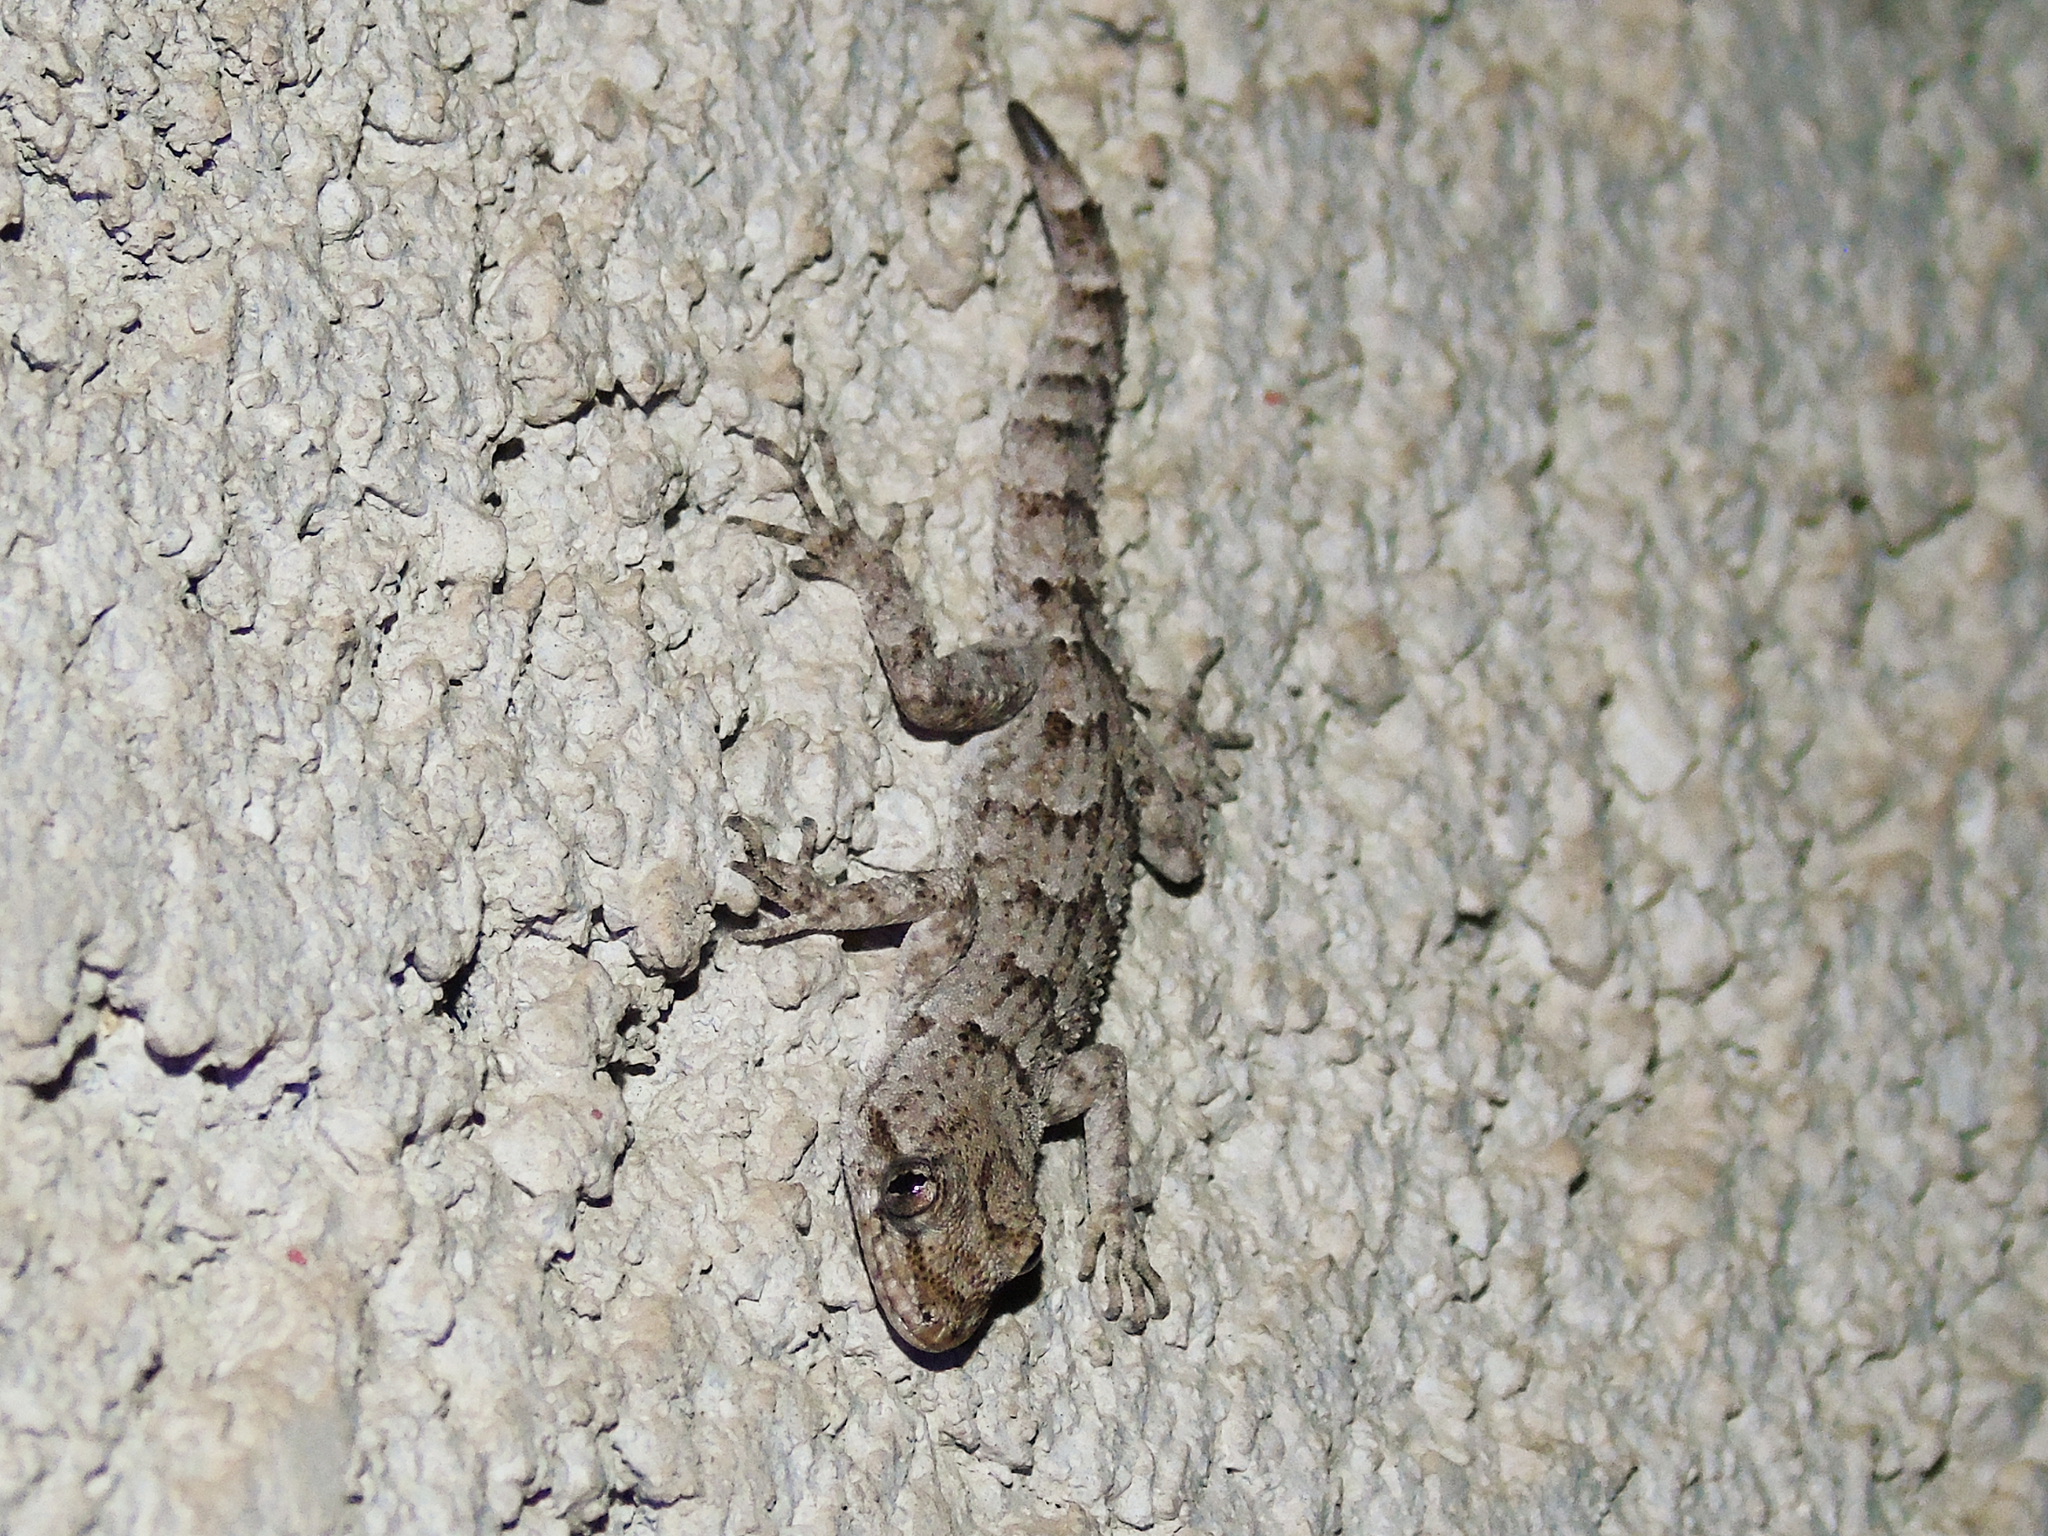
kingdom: Animalia
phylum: Chordata
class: Squamata
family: Gekkonidae
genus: Mediodactylus
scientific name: Mediodactylus kotschyi
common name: Kotschy's gecko
